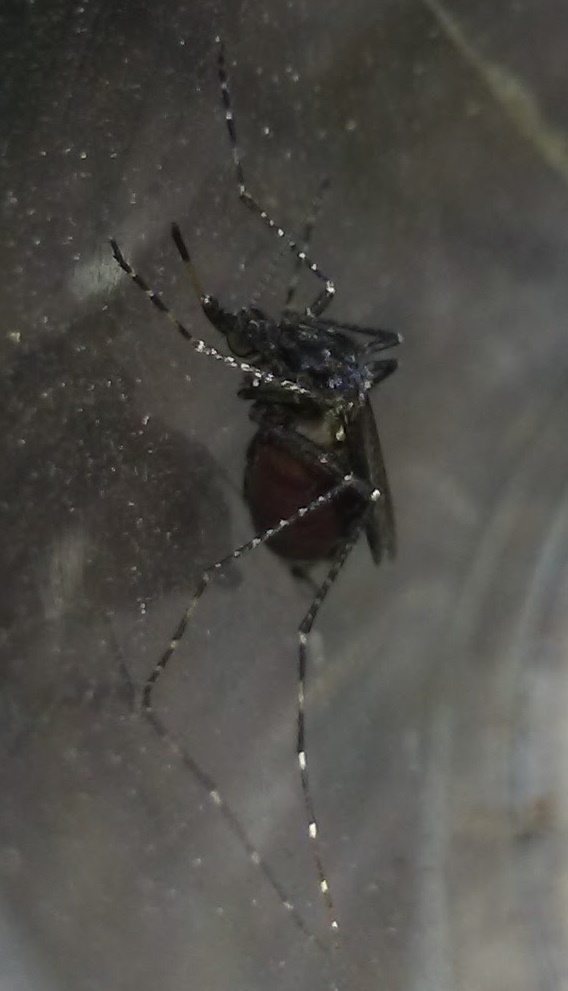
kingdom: Animalia
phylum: Arthropoda
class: Insecta
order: Diptera
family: Culicidae
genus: Psorophora
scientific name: Psorophora columbiae
